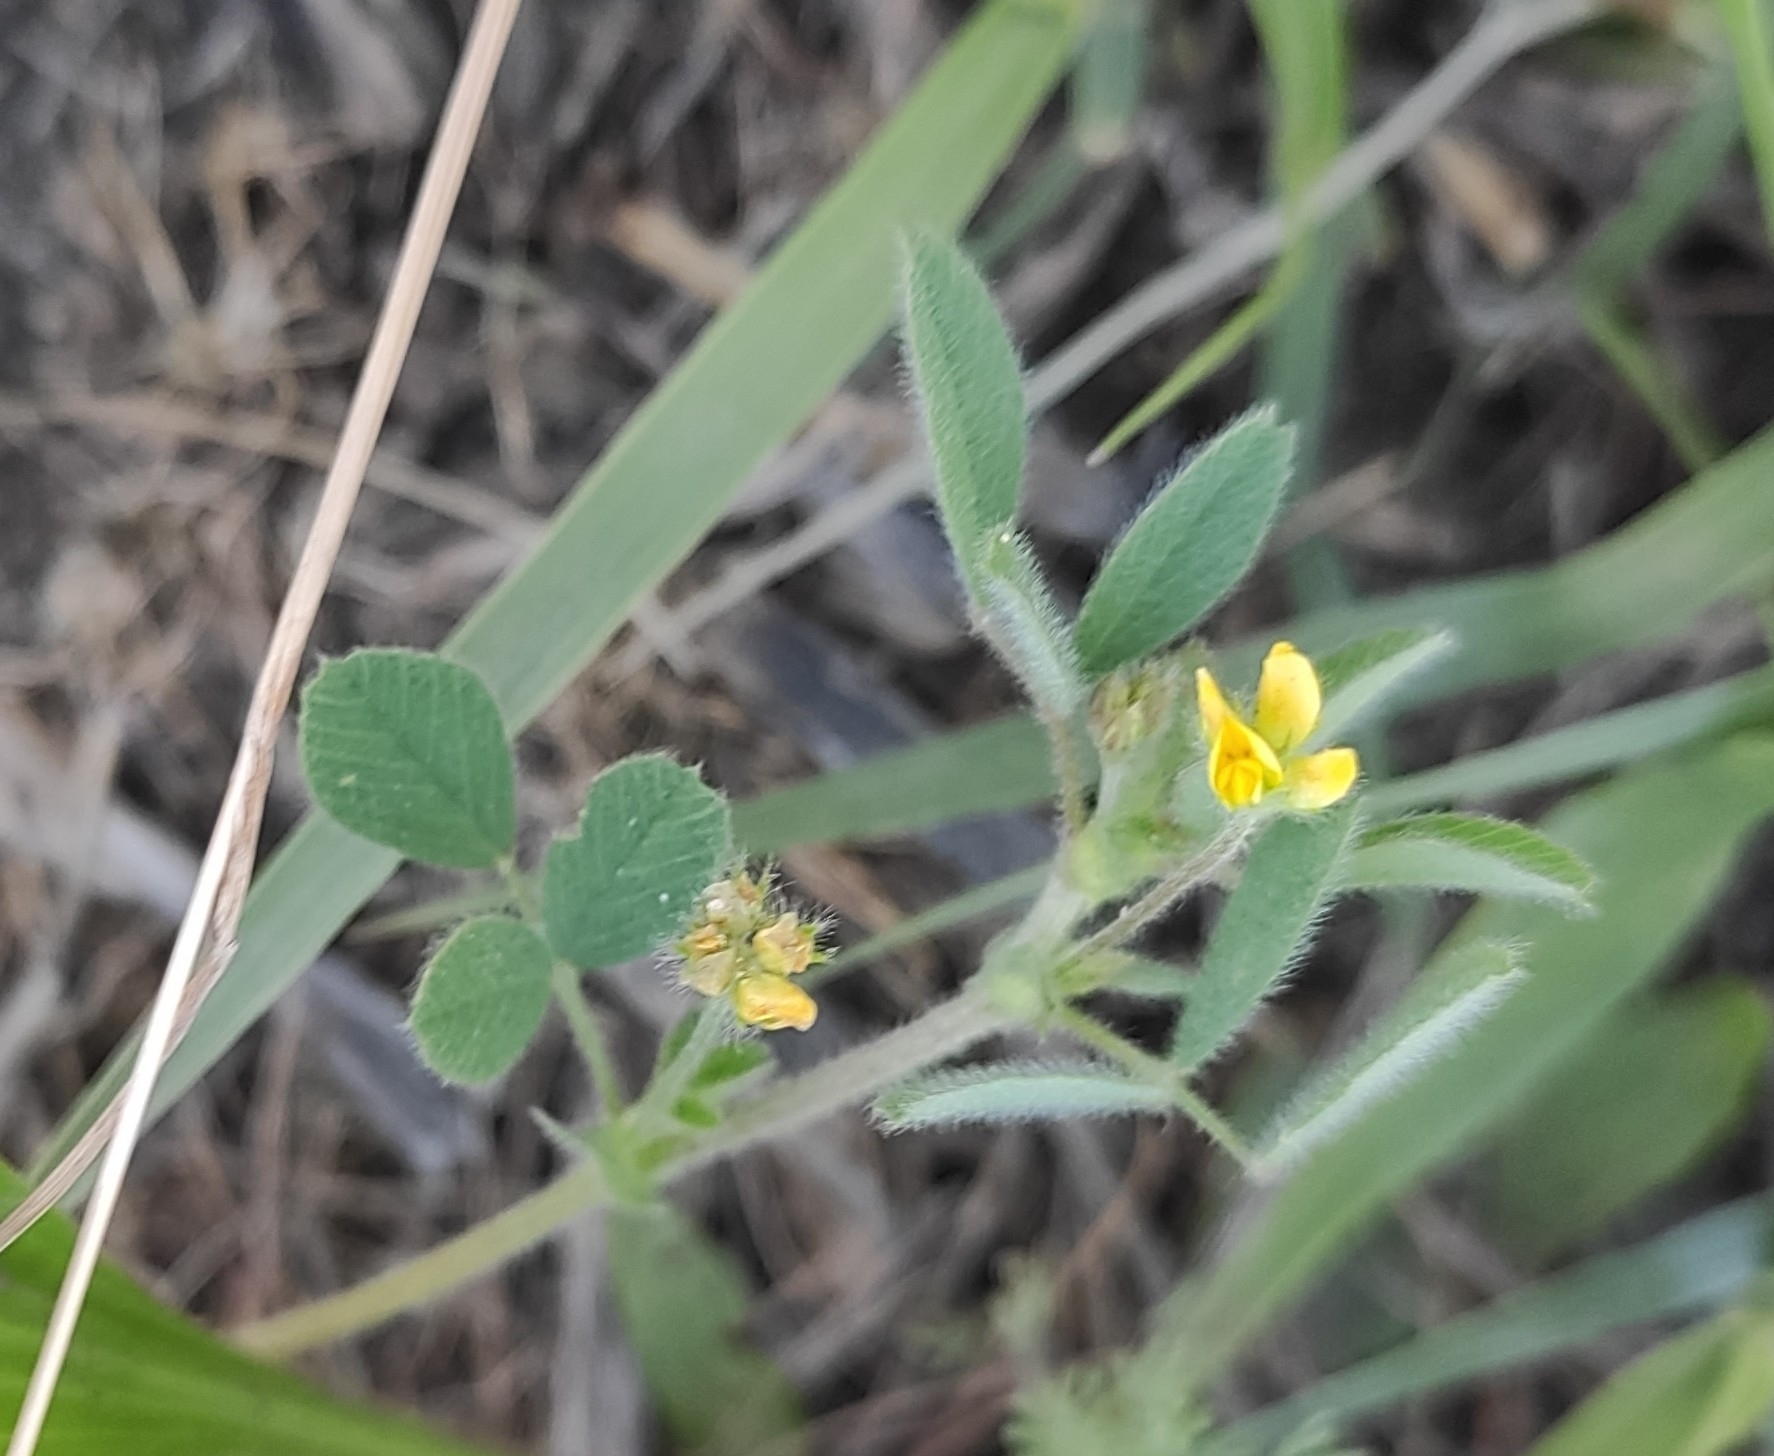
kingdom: Plantae
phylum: Tracheophyta
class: Magnoliopsida
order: Fabales
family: Fabaceae
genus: Medicago
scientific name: Medicago minima
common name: Little bur-clover
